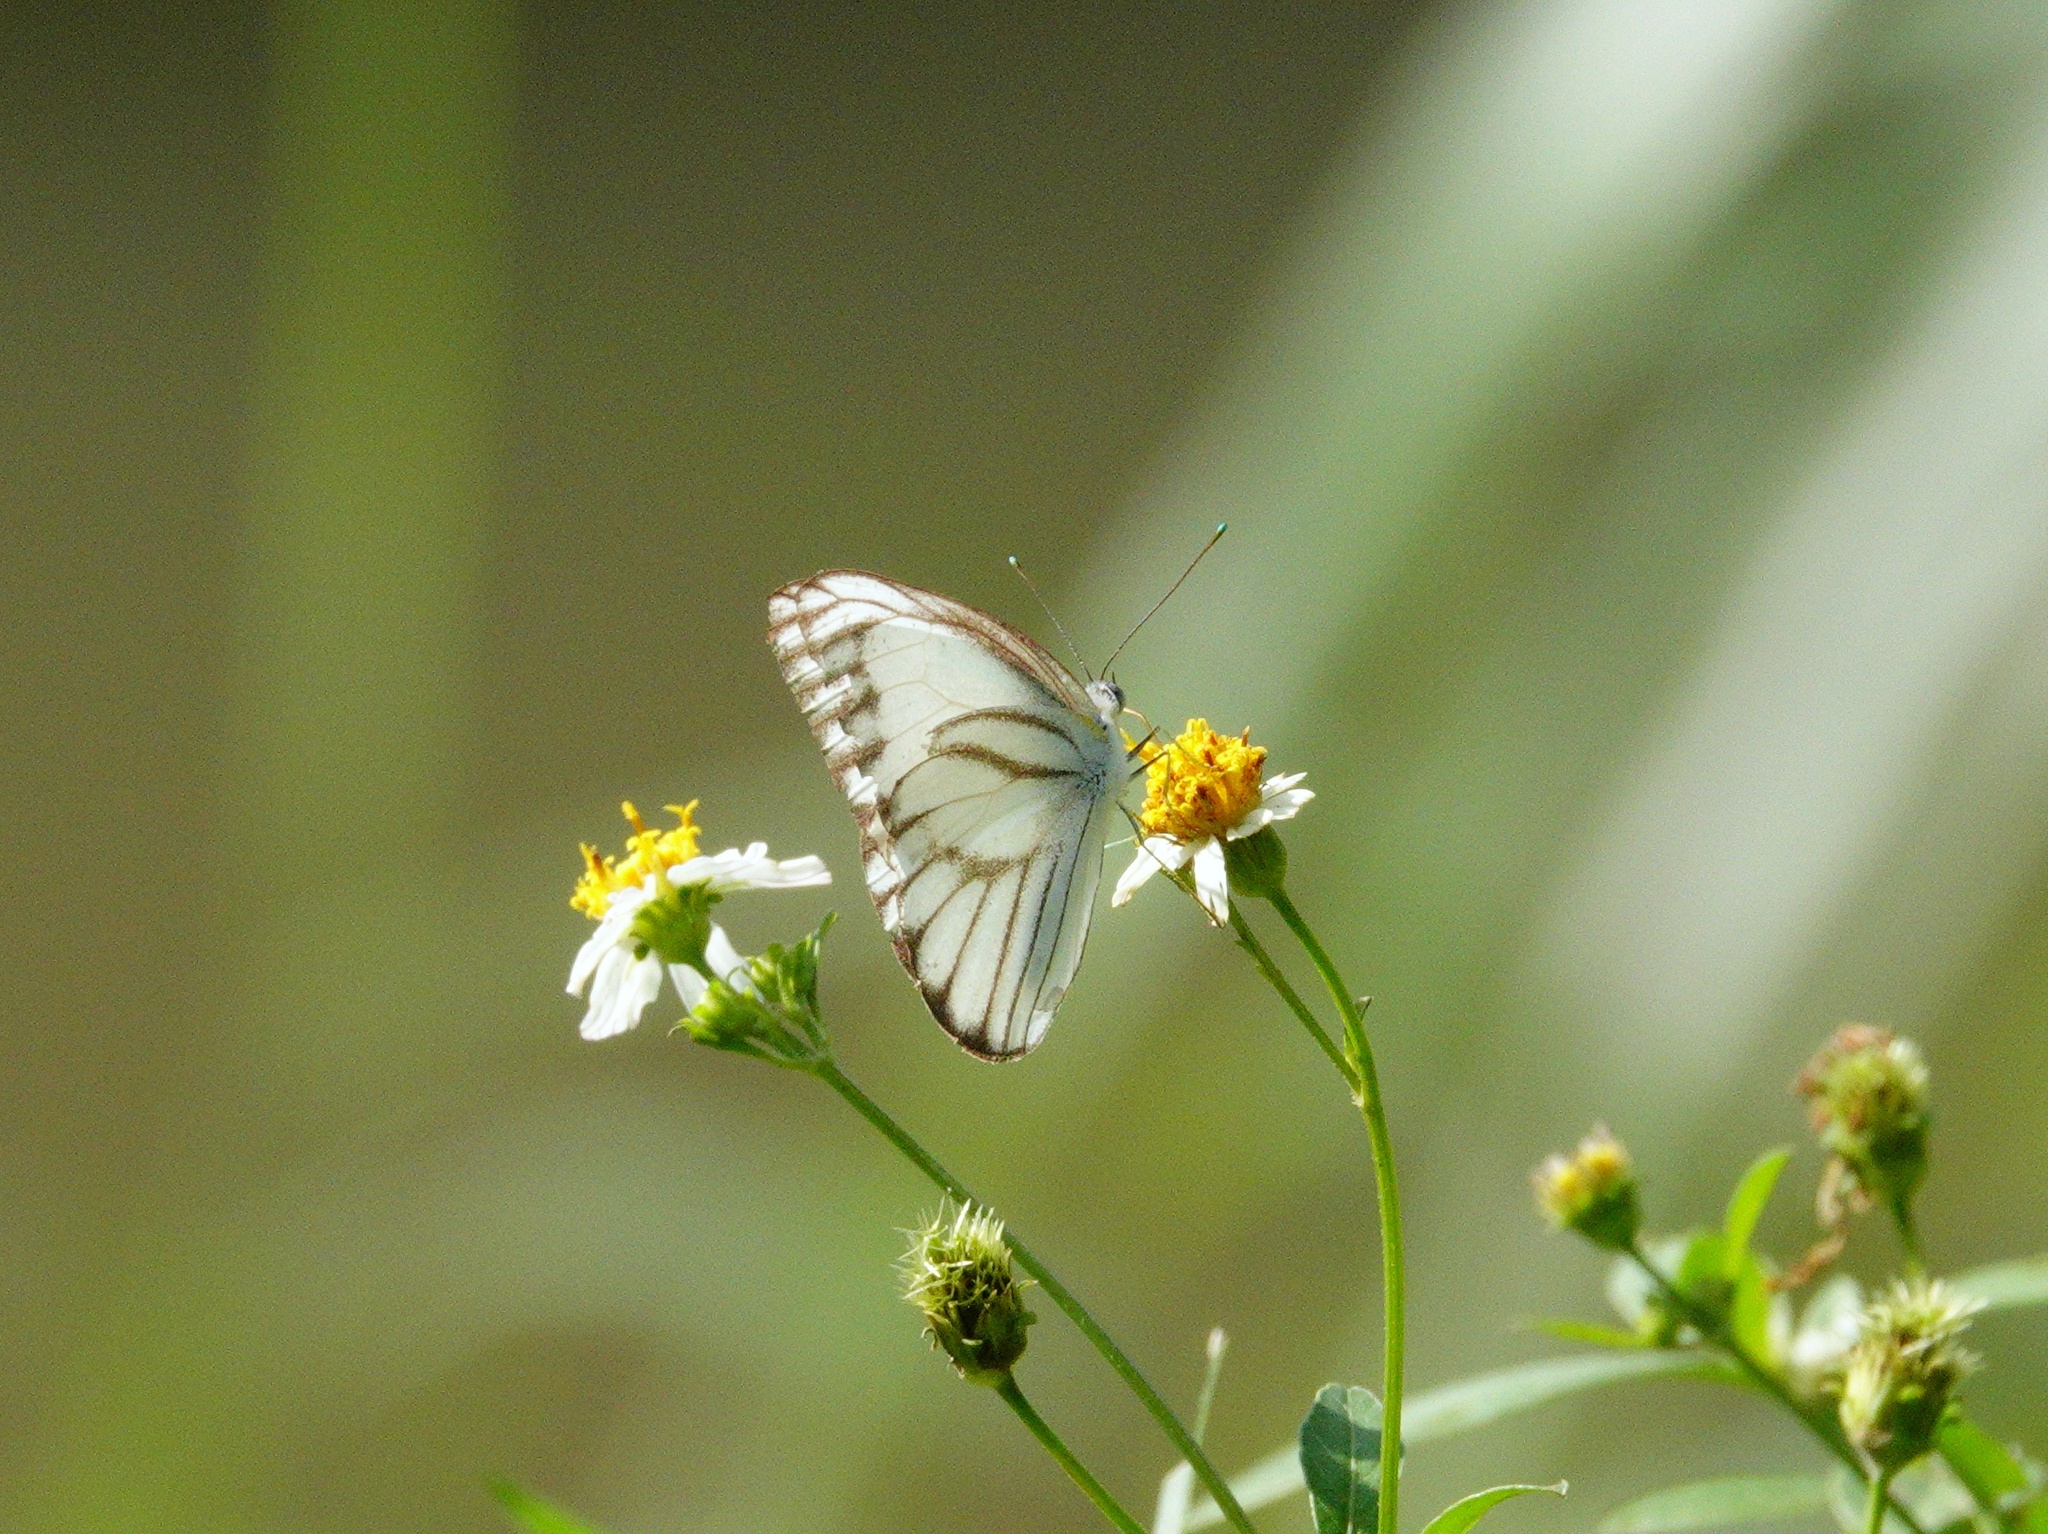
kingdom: Animalia
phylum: Arthropoda
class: Insecta
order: Lepidoptera
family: Pieridae
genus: Appias
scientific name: Appias libythea
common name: Striped albatross
